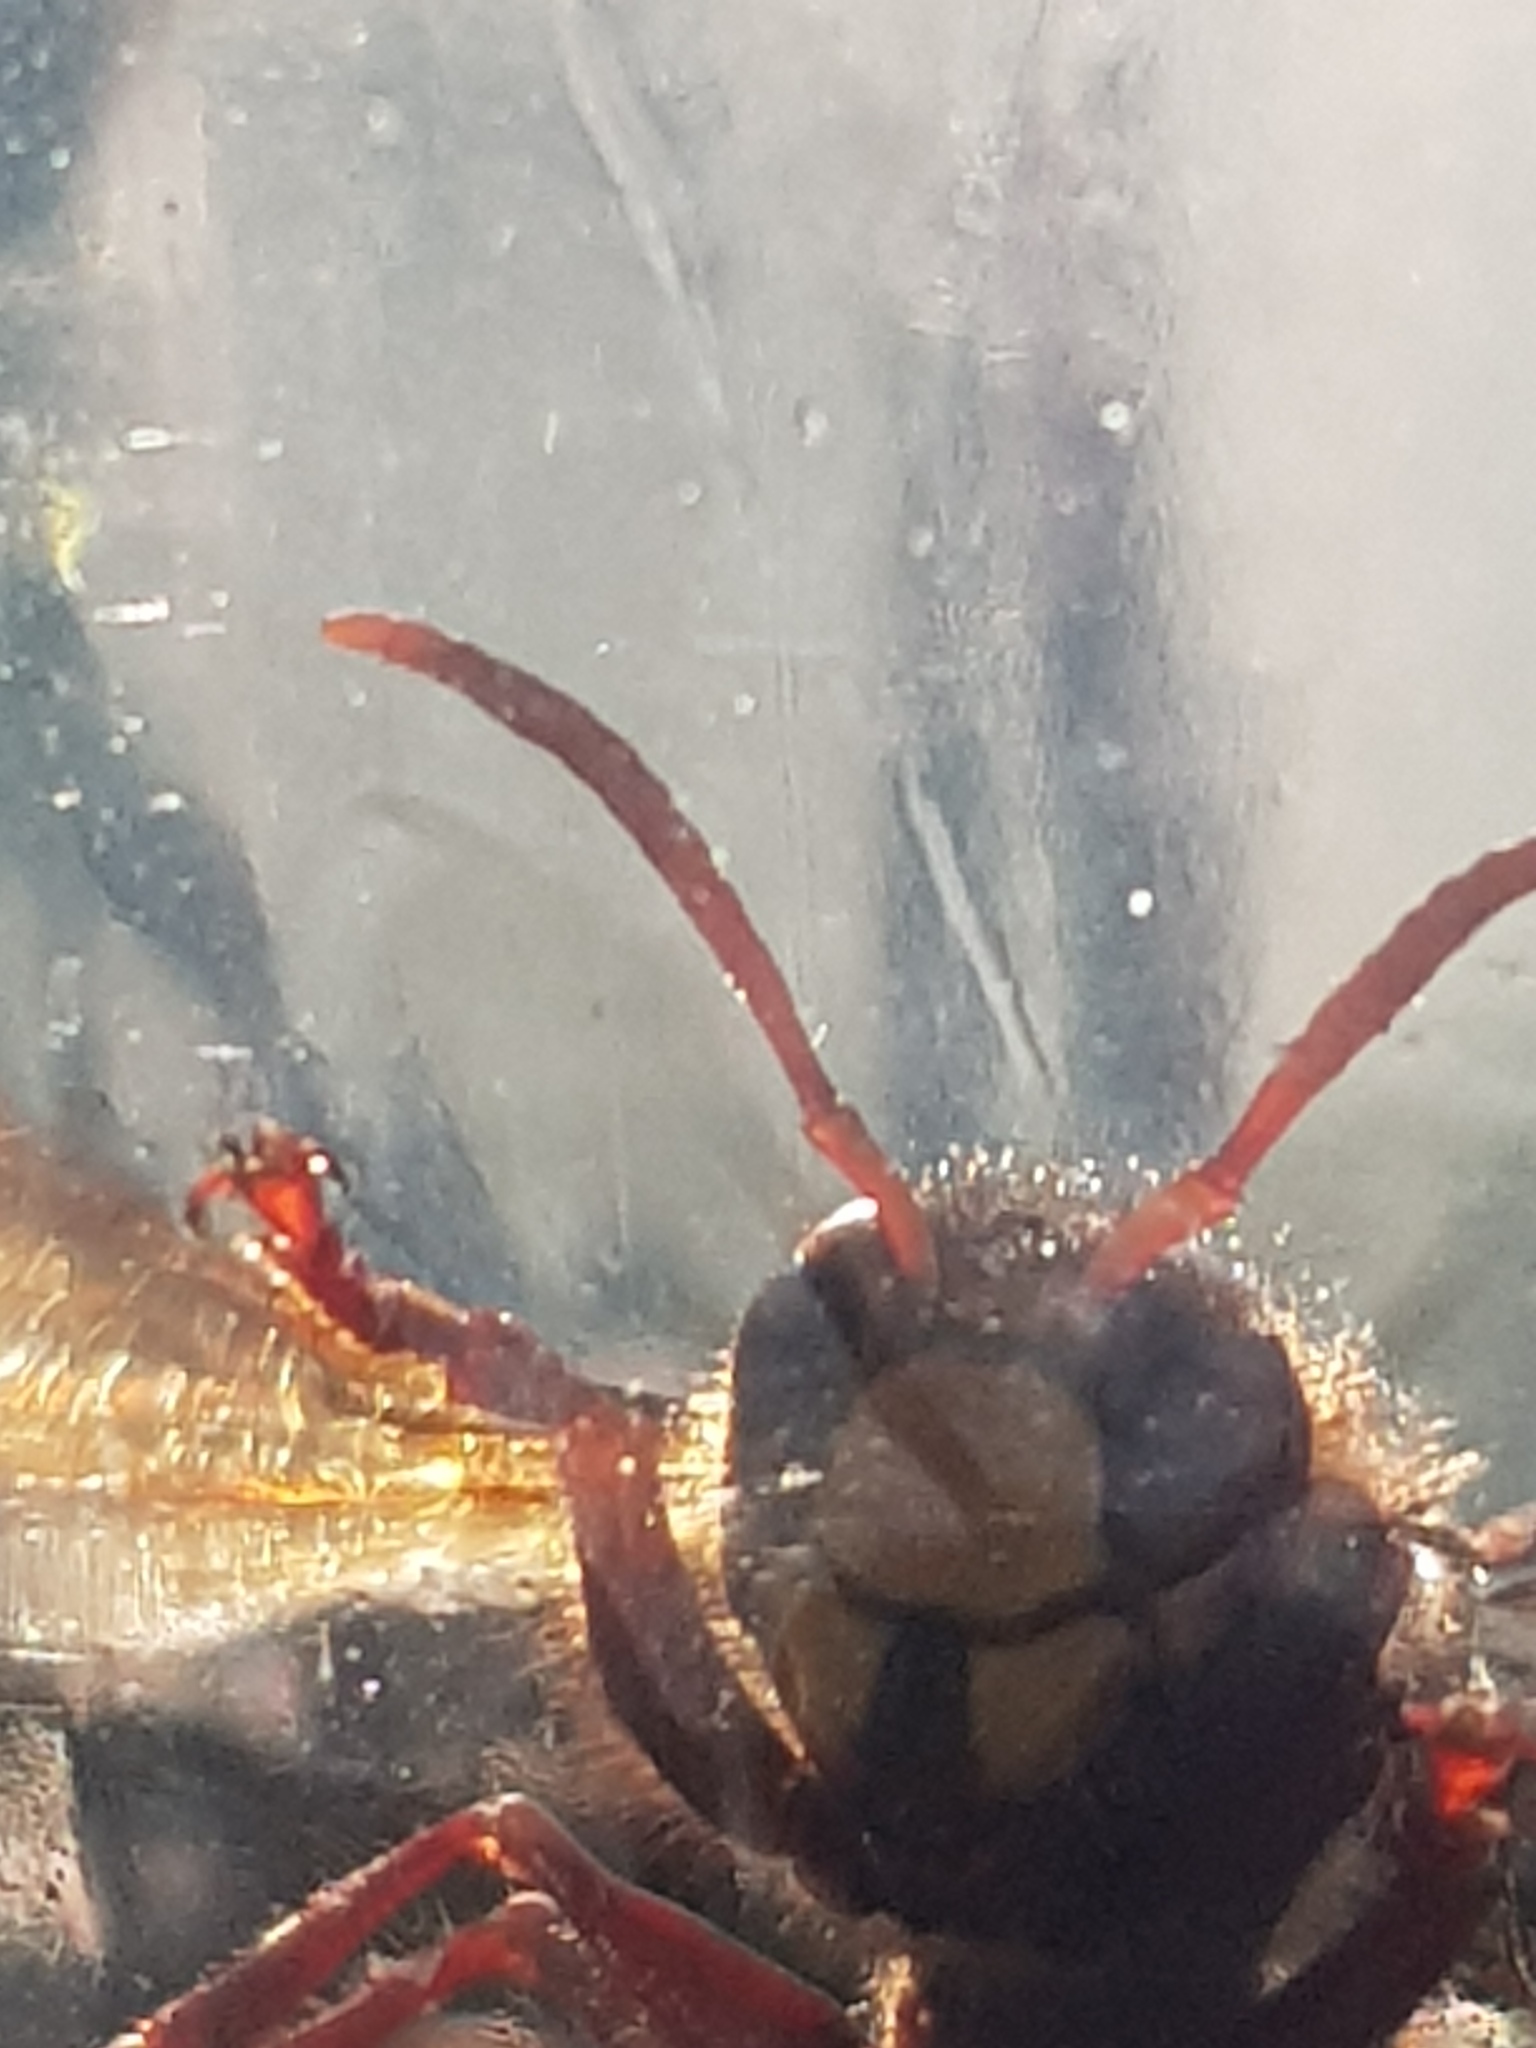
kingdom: Animalia
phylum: Arthropoda
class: Insecta
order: Hymenoptera
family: Vespidae
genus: Vespa
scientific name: Vespa crabro
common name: Hornet
